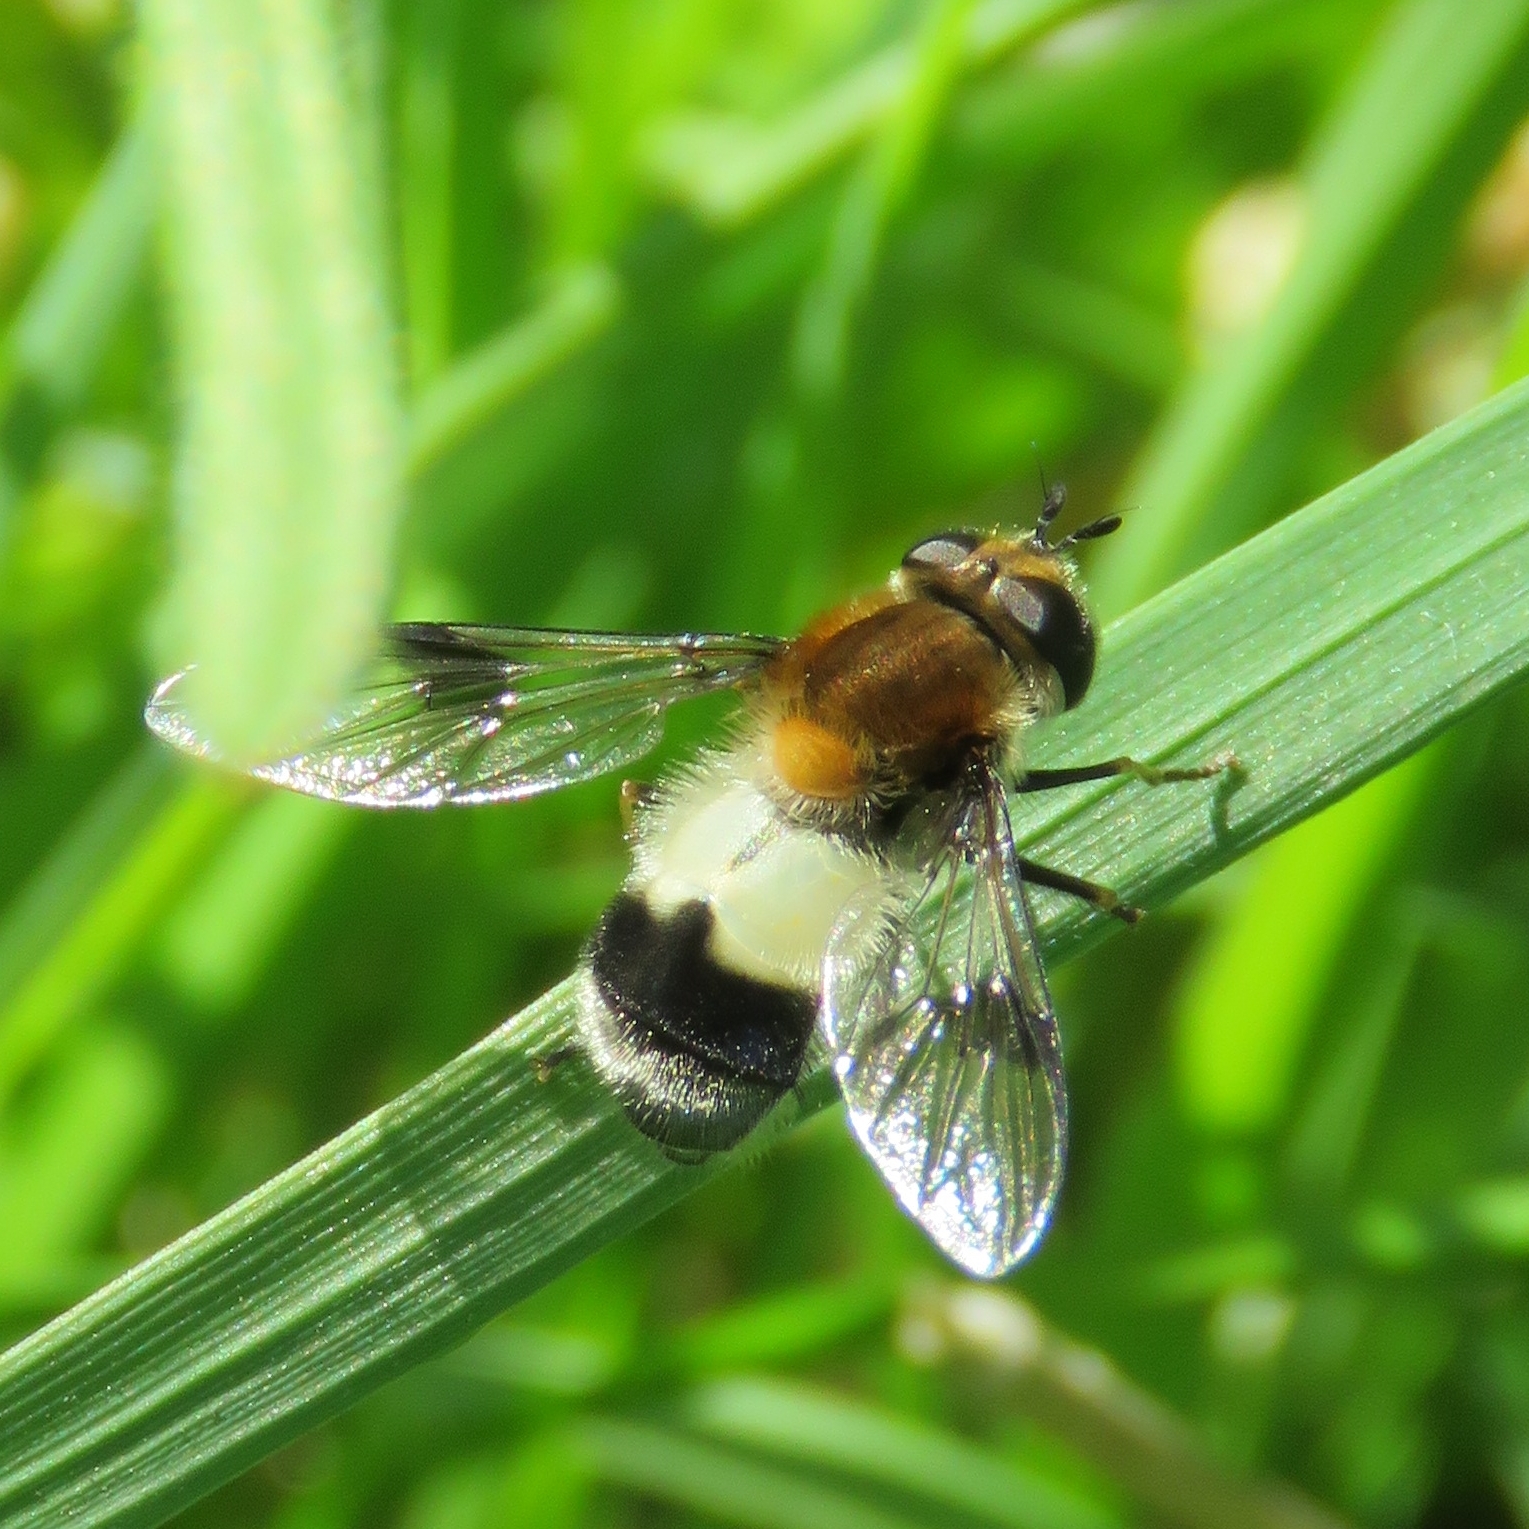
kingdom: Animalia
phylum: Arthropoda
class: Insecta
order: Diptera
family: Syrphidae
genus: Leucozona
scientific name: Leucozona lucorum
